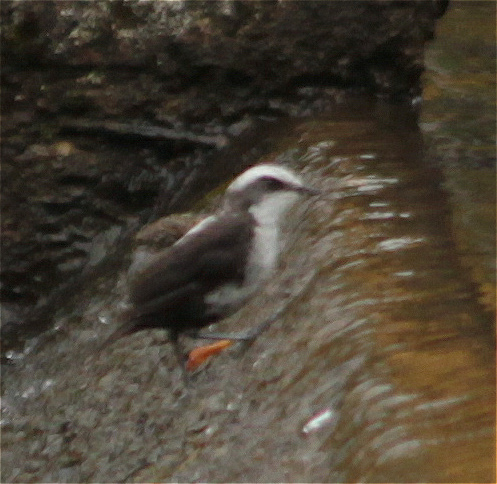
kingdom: Animalia
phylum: Chordata
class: Aves
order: Passeriformes
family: Cinclidae
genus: Cinclus
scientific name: Cinclus leucocephalus
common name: White-capped dipper
